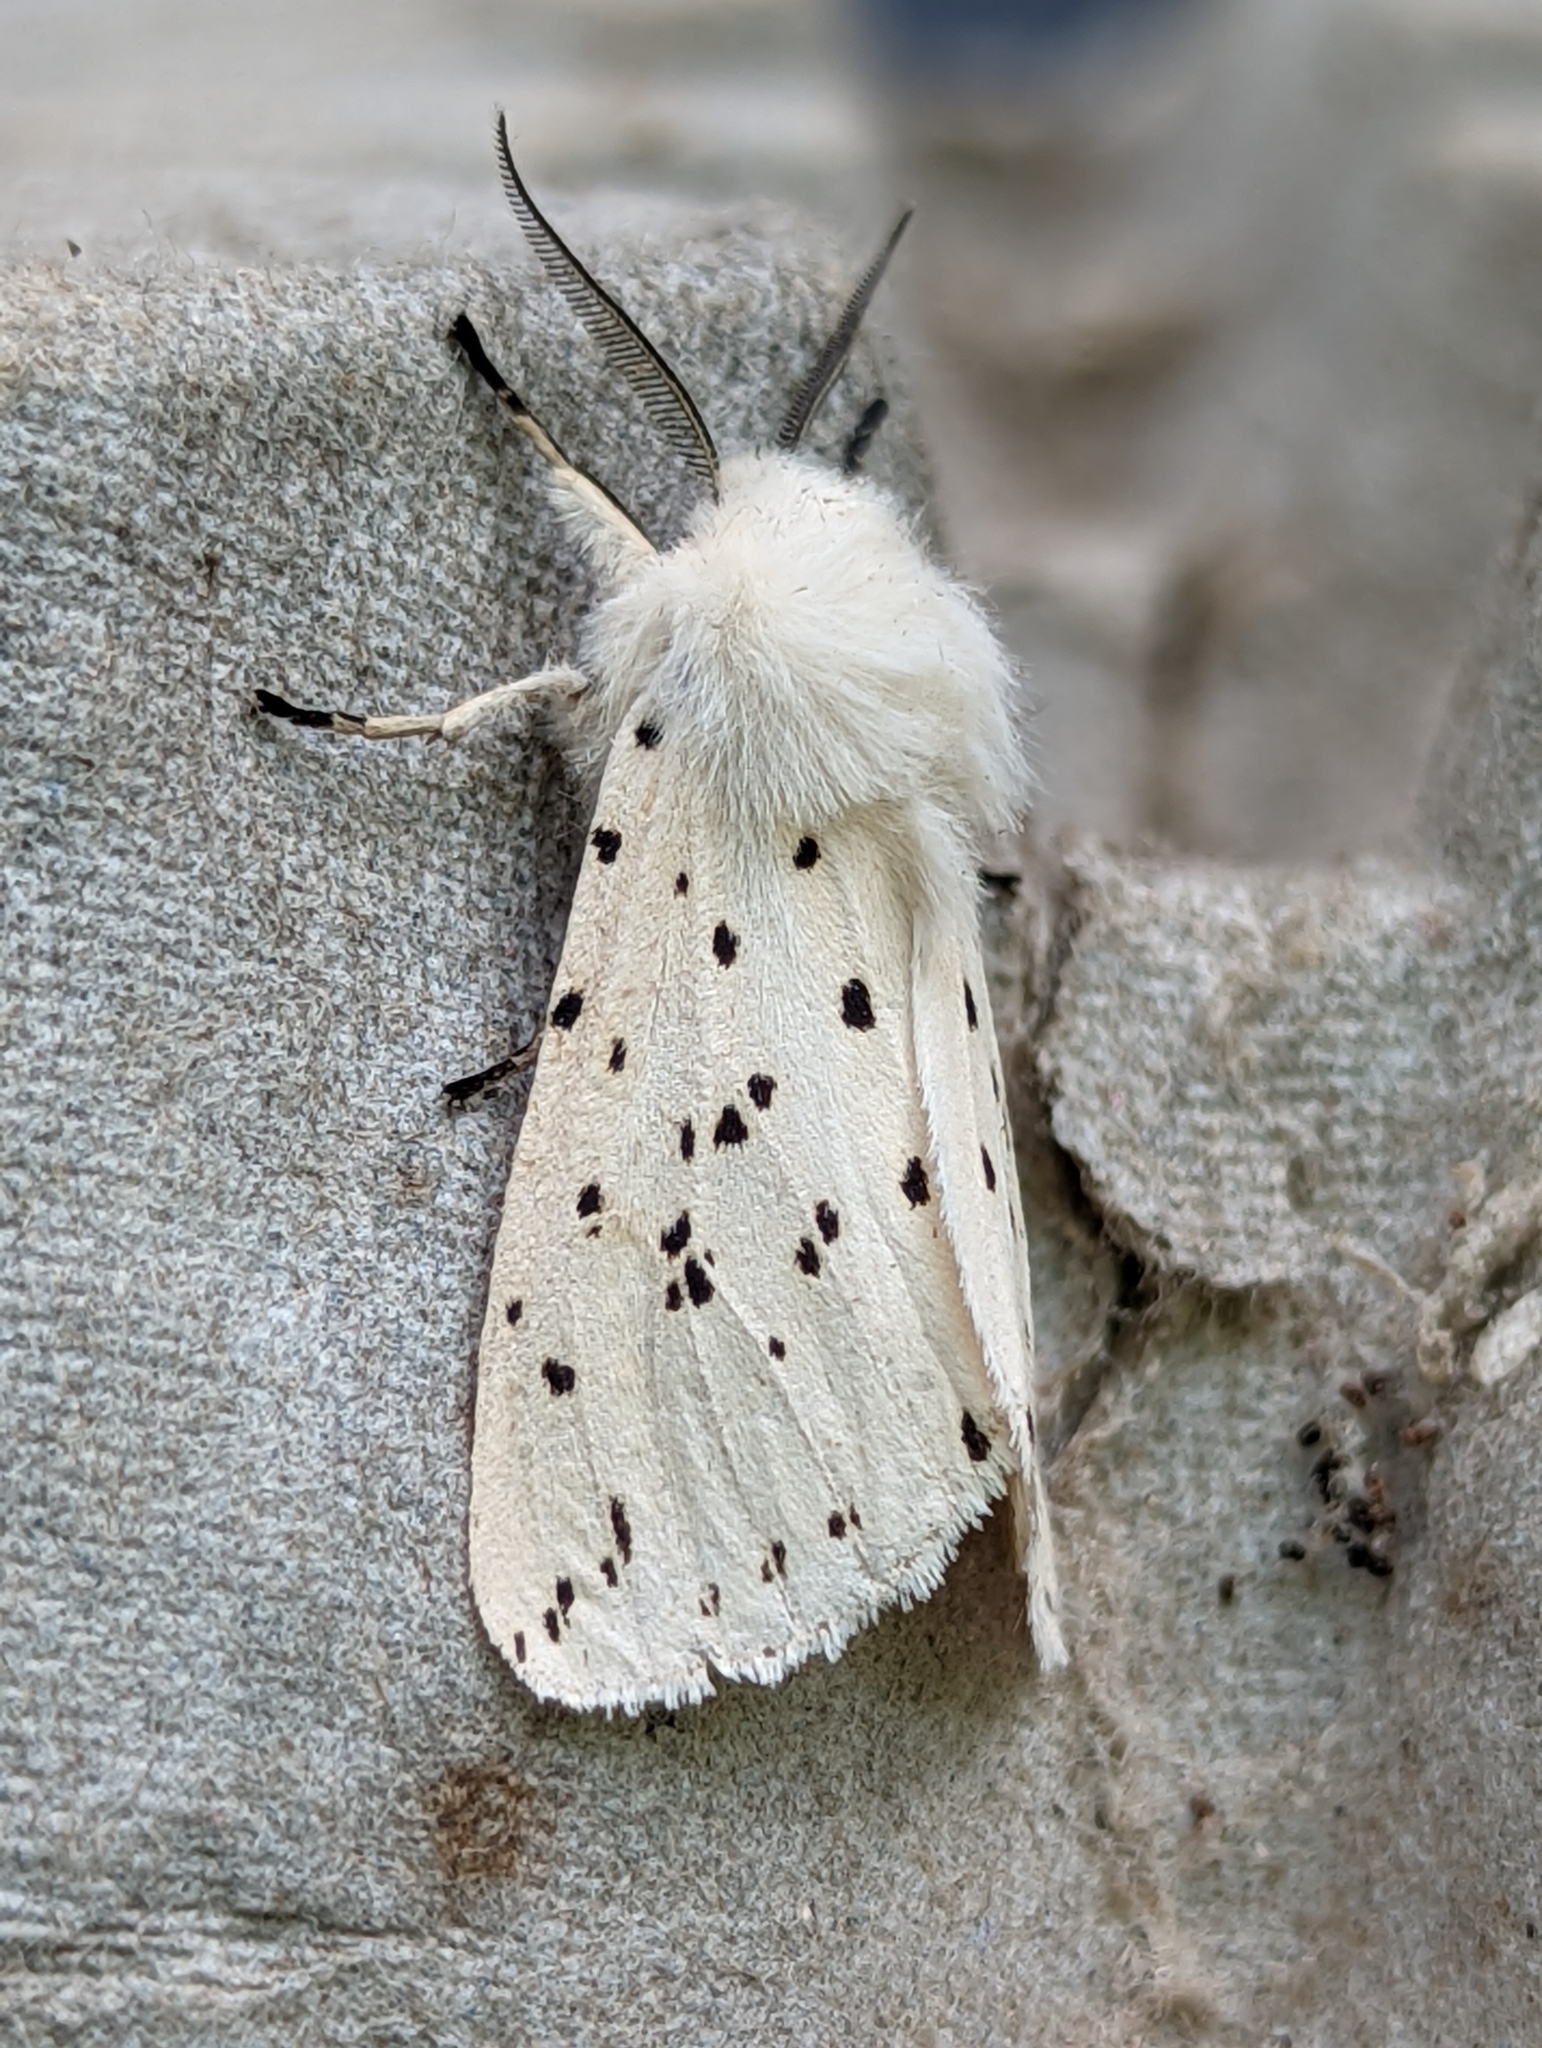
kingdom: Animalia
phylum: Arthropoda
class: Insecta
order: Lepidoptera
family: Erebidae
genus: Spilosoma
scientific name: Spilosoma lubricipeda
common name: White ermine
